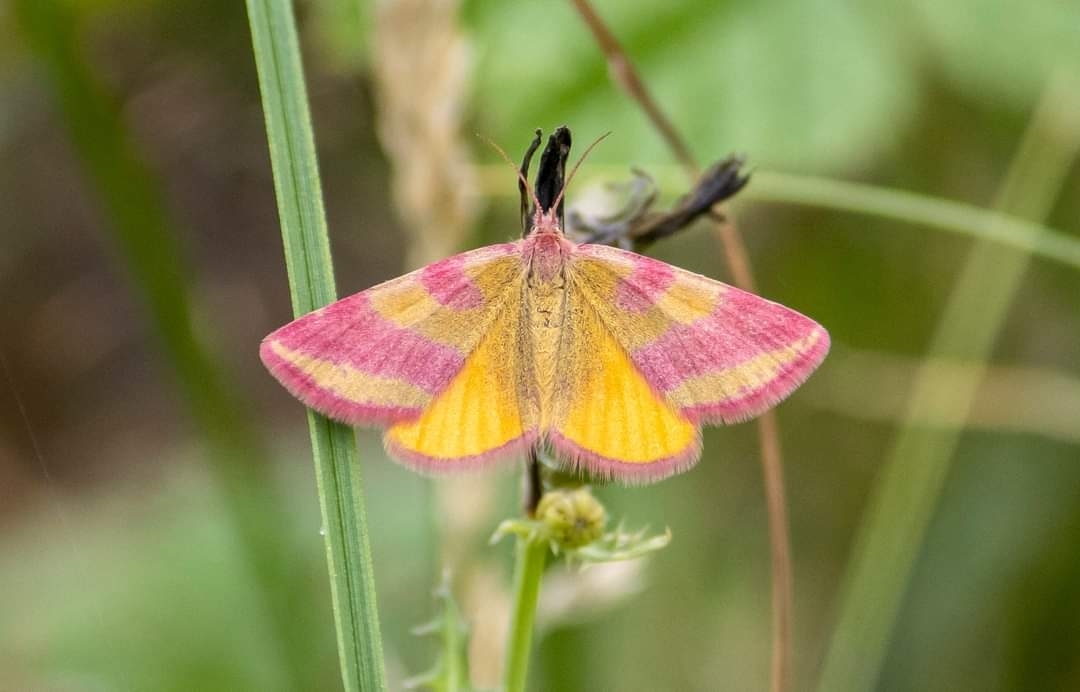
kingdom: Animalia
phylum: Arthropoda
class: Insecta
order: Lepidoptera
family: Geometridae
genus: Lythria
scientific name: Lythria cruentaria
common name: Purple-barred yellow
